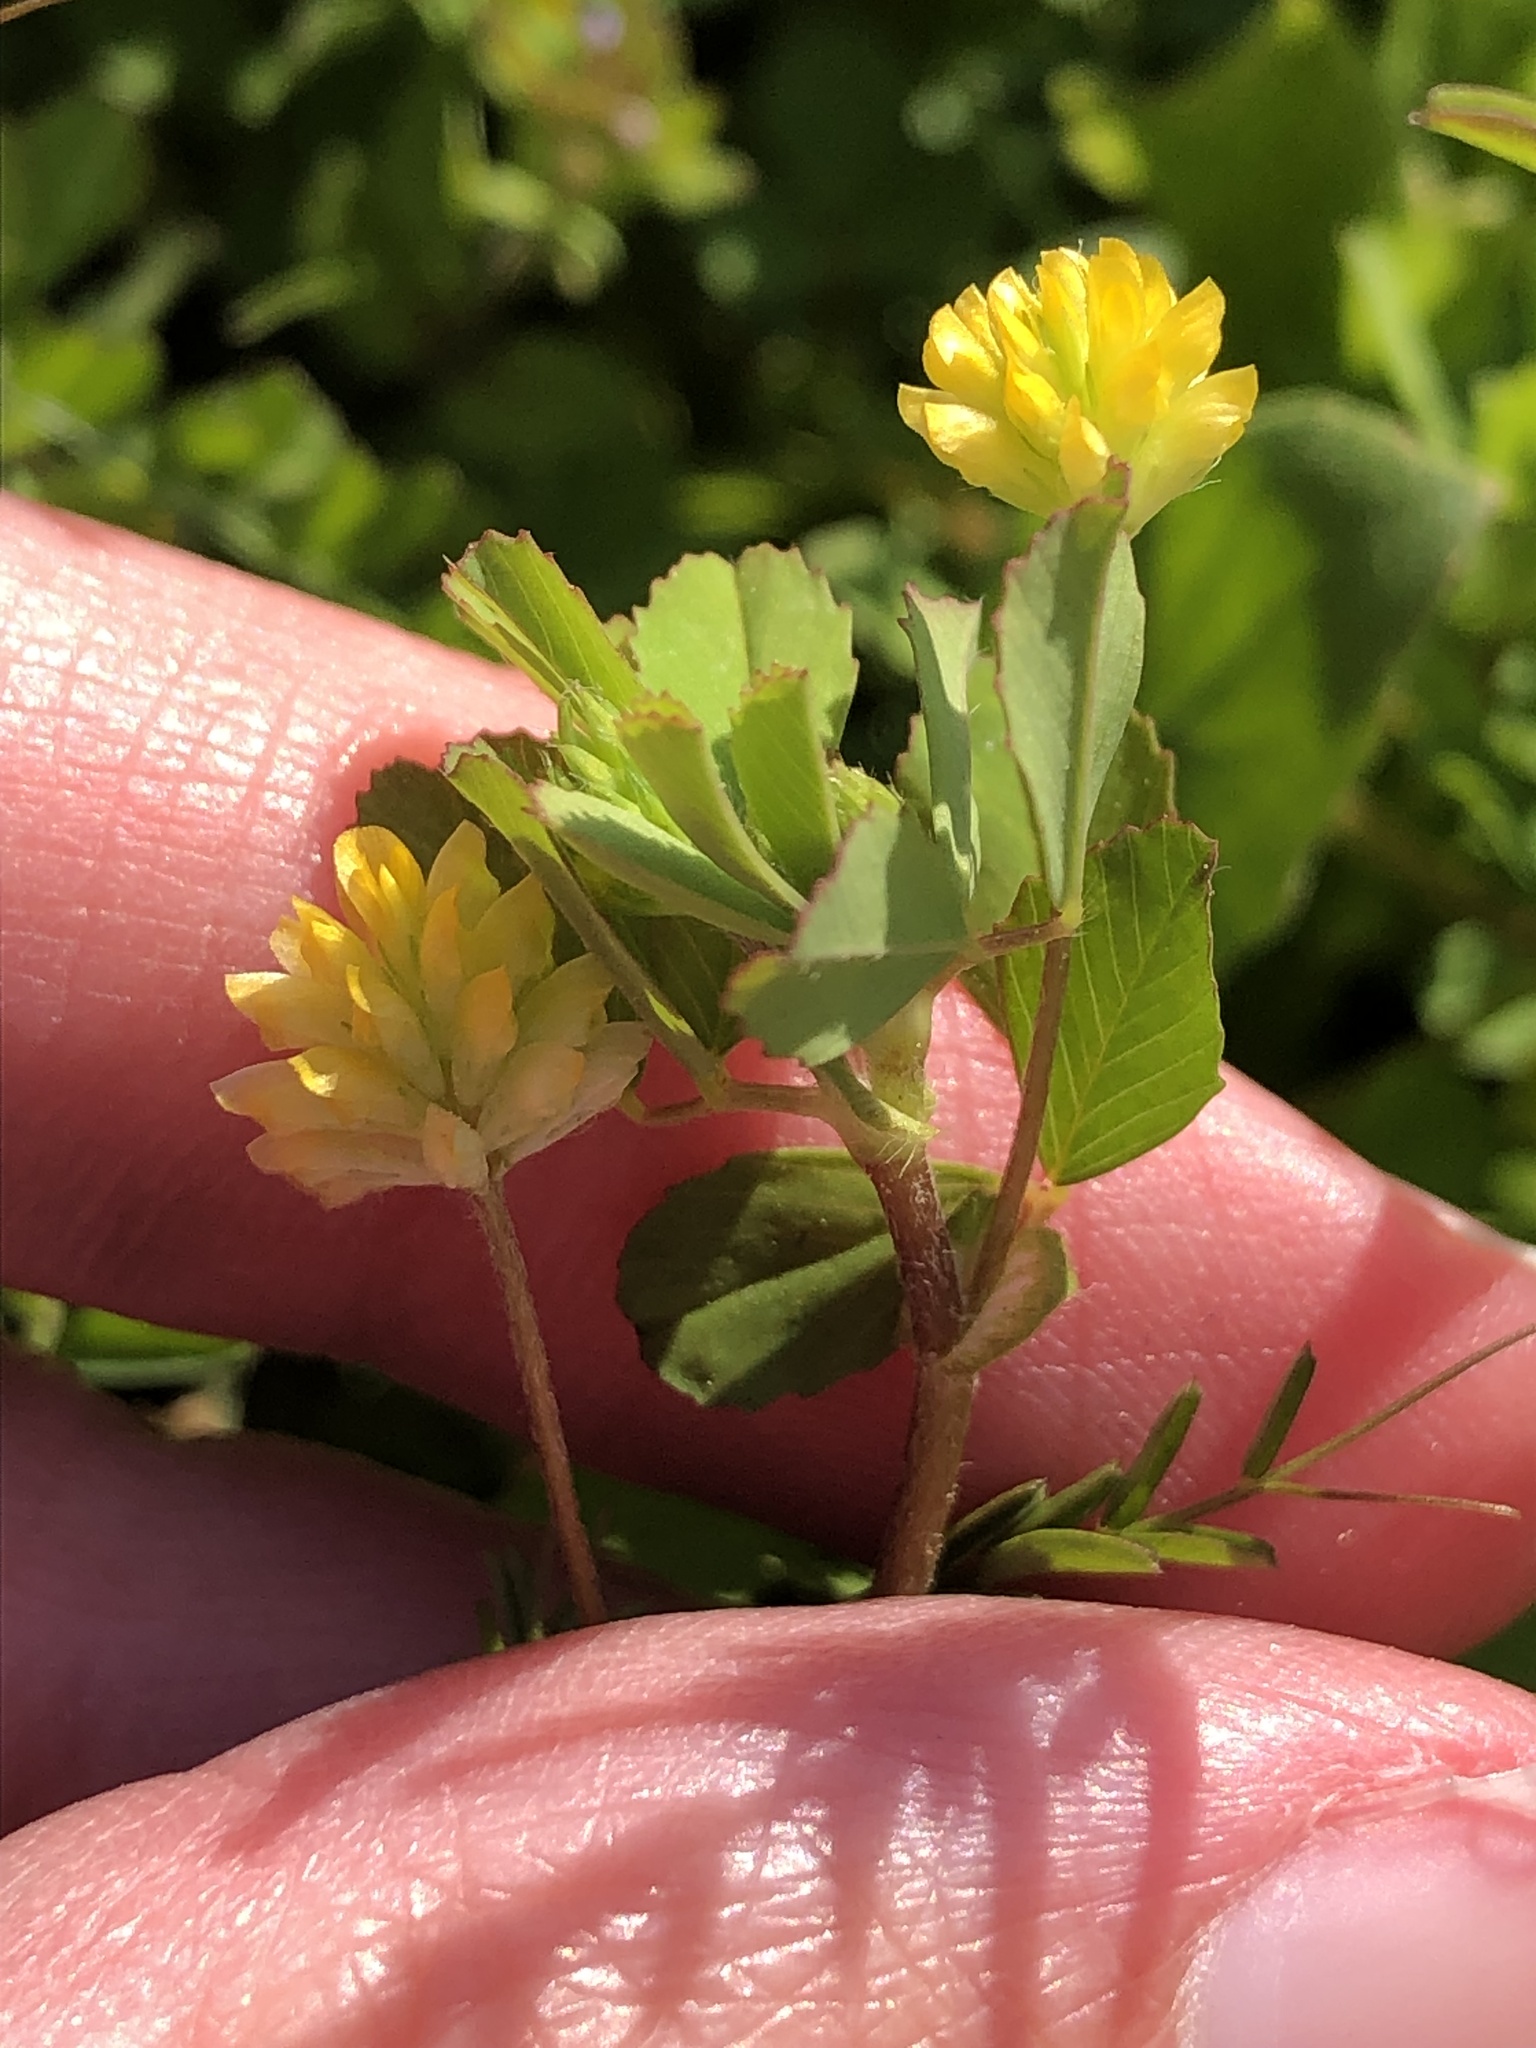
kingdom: Plantae
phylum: Tracheophyta
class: Magnoliopsida
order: Fabales
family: Fabaceae
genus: Trifolium
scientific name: Trifolium dubium
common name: Suckling clover
